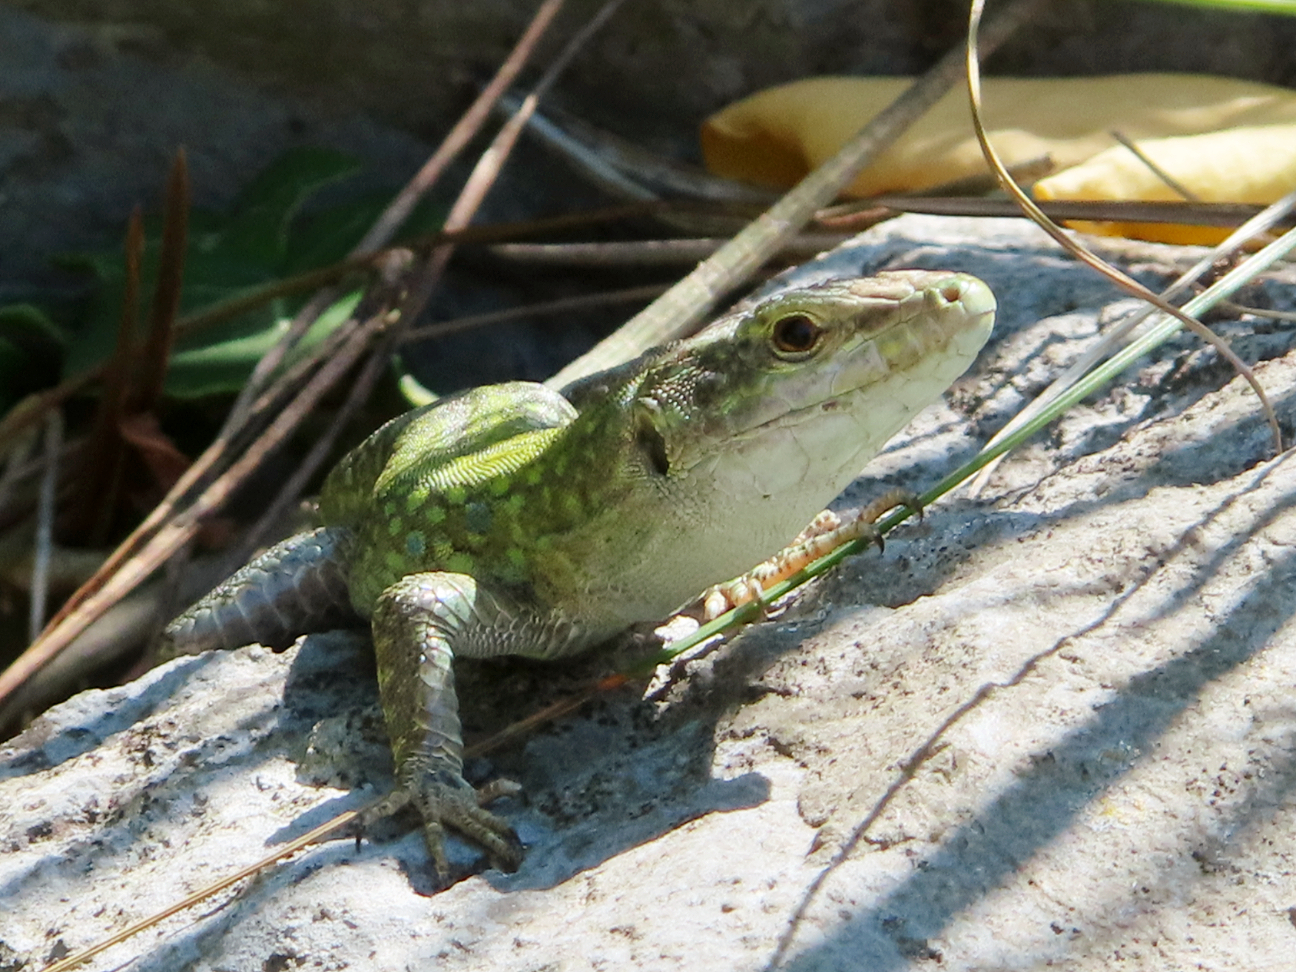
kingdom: Animalia
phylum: Chordata
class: Squamata
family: Lacertidae
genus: Podarcis
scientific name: Podarcis siculus
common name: Italian wall lizard
